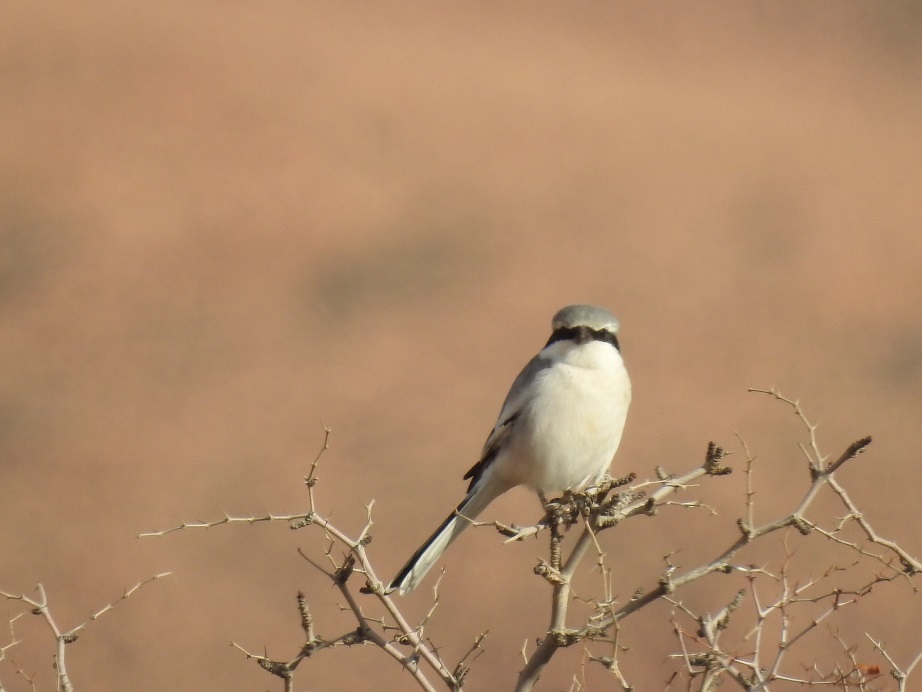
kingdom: Animalia
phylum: Chordata
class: Aves
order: Passeriformes
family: Laniidae
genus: Lanius
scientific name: Lanius excubitor
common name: Great grey shrike
